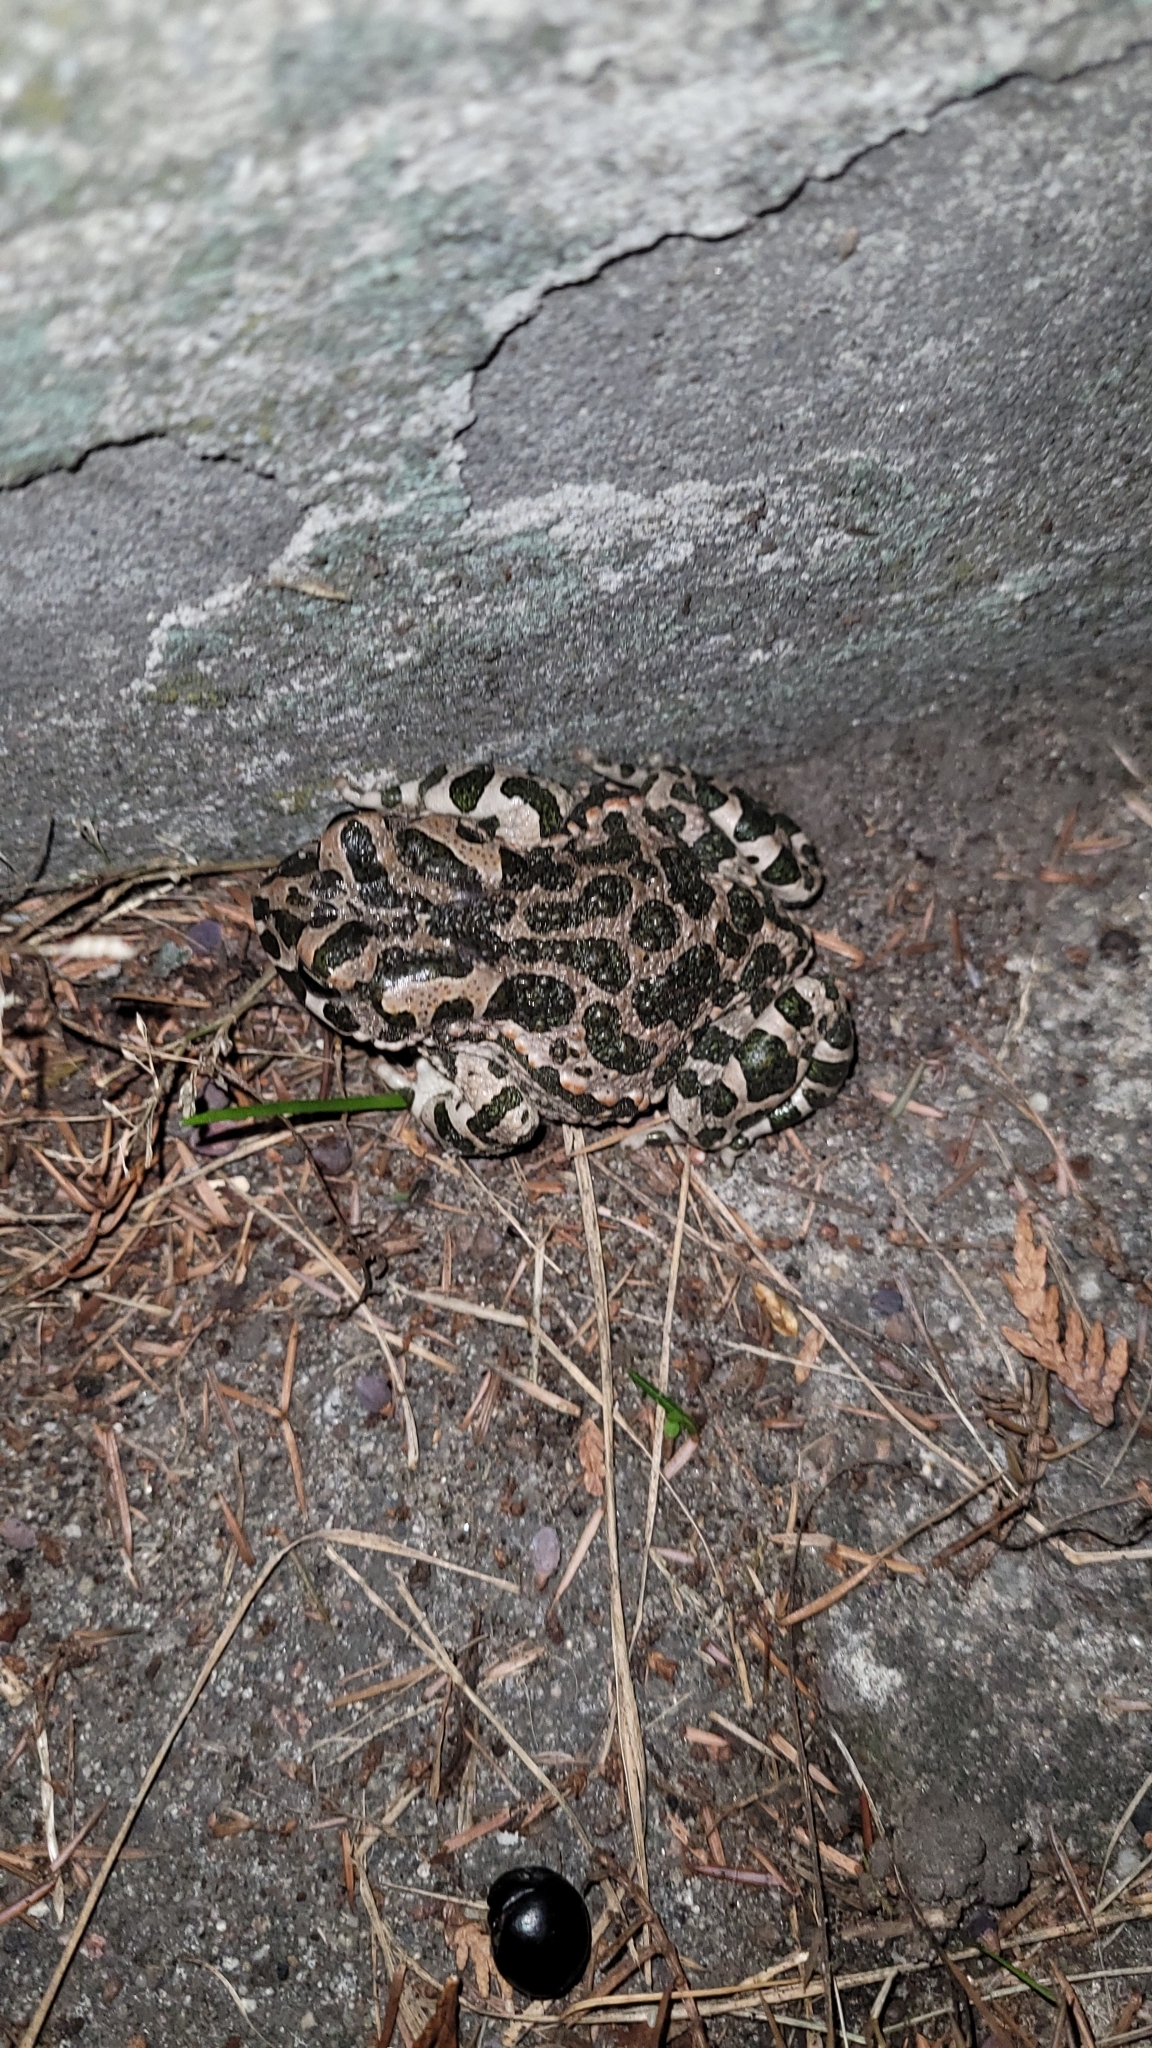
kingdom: Animalia
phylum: Chordata
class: Amphibia
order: Anura
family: Bufonidae
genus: Bufotes
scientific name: Bufotes viridis
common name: European green toad
